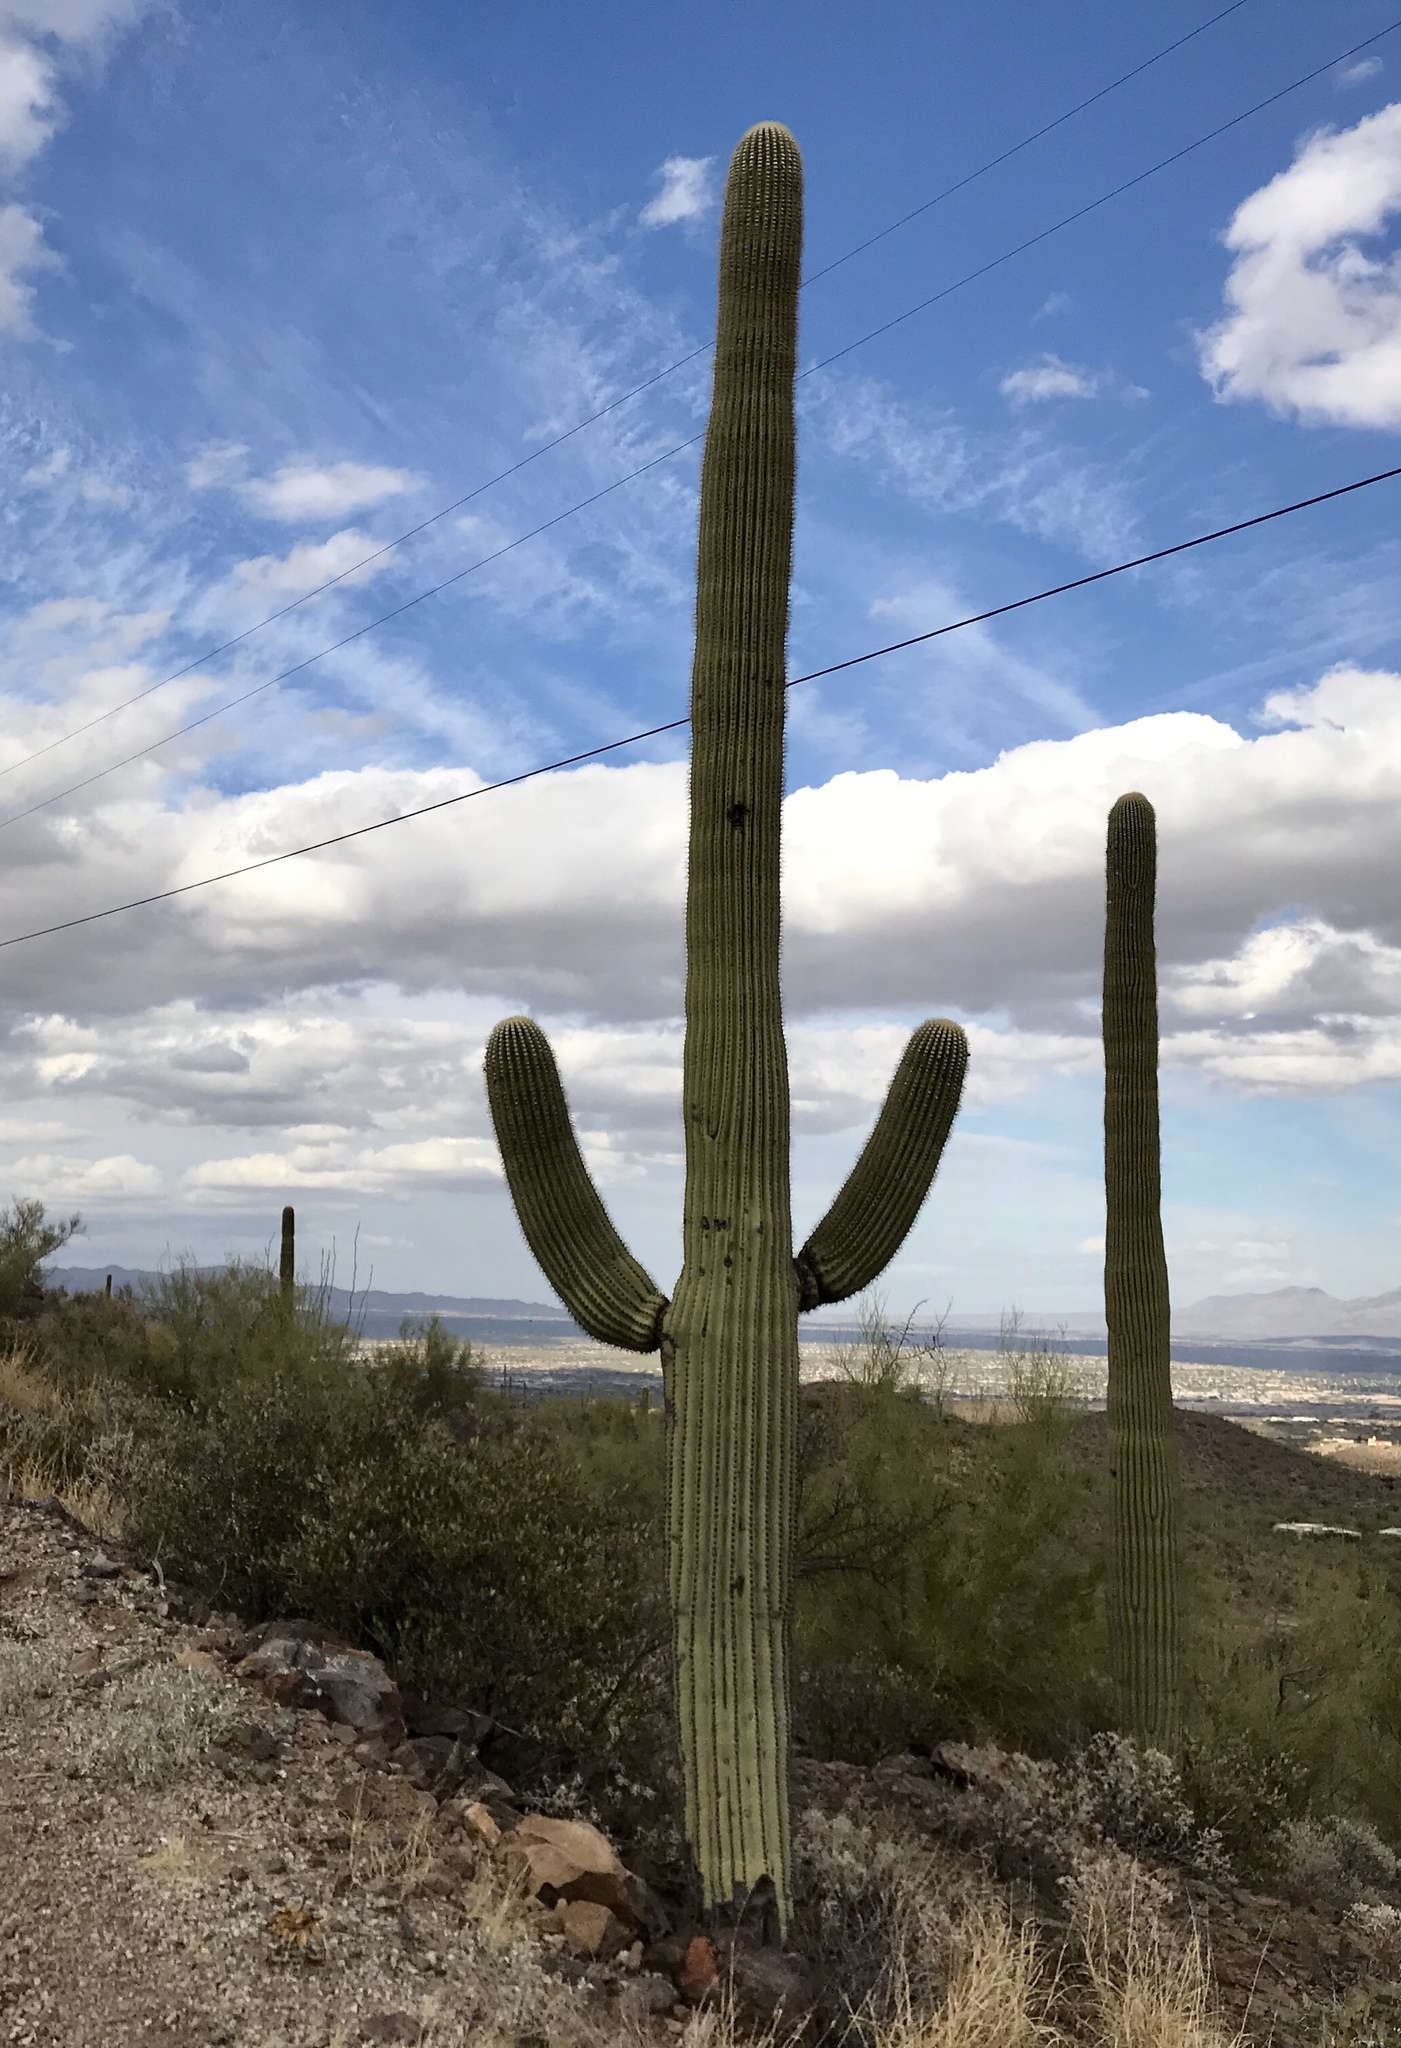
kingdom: Plantae
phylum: Tracheophyta
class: Magnoliopsida
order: Caryophyllales
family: Cactaceae
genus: Carnegiea
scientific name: Carnegiea gigantea
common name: Saguaro
